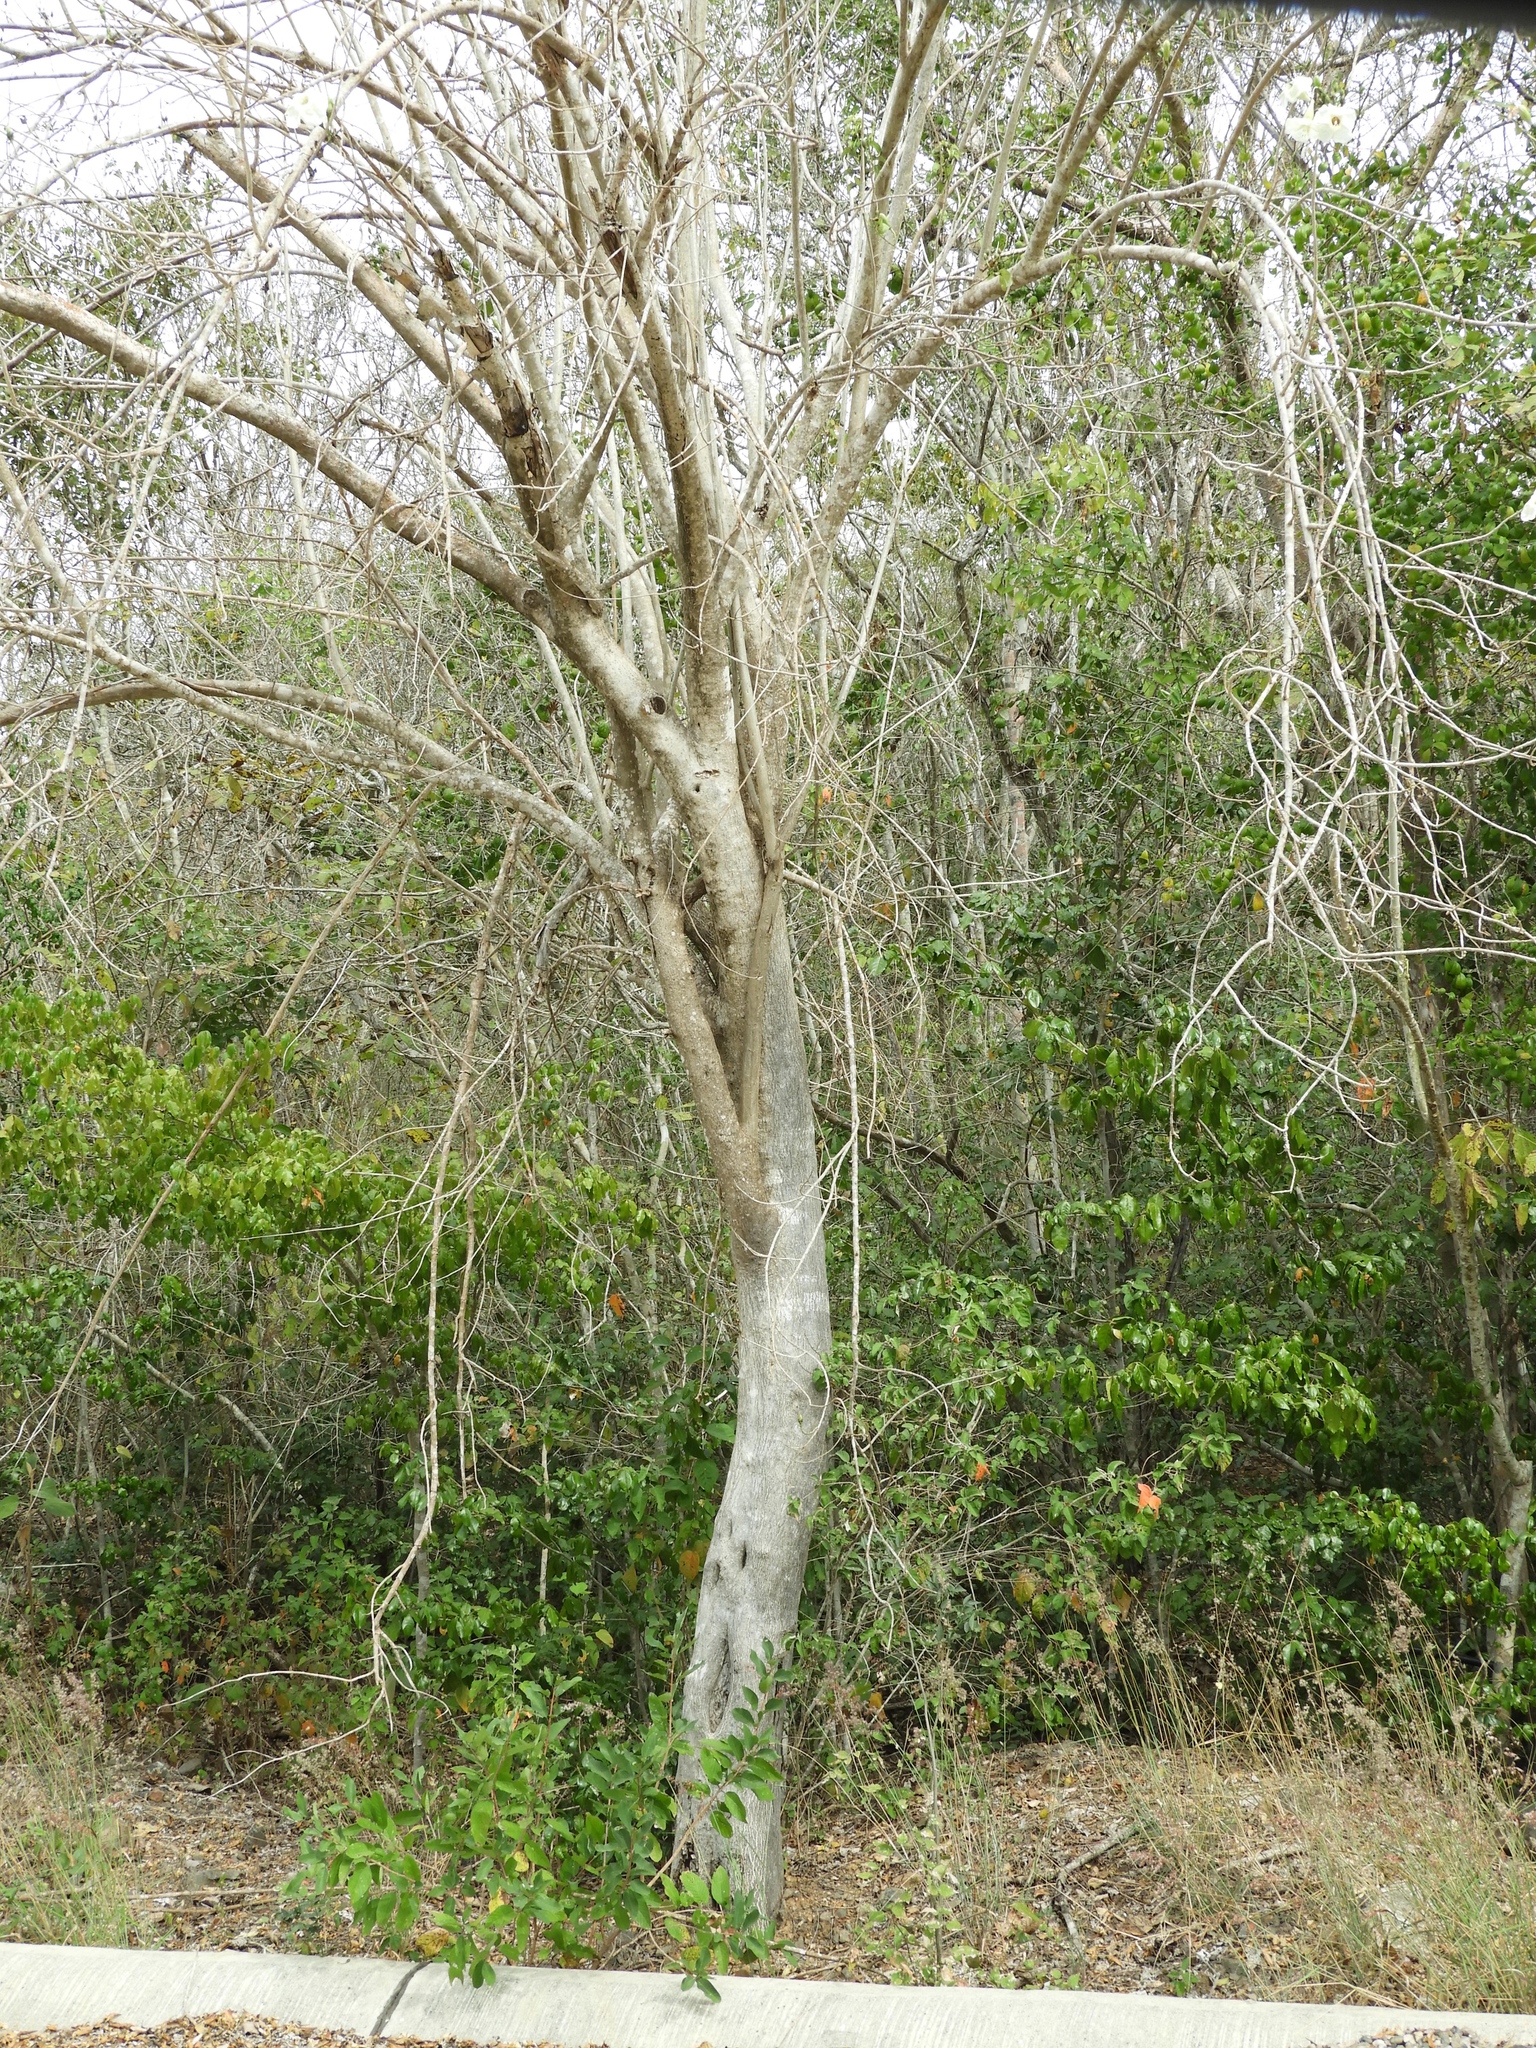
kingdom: Plantae
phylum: Tracheophyta
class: Magnoliopsida
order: Solanales
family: Convolvulaceae
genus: Ipomoea
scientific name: Ipomoea arborescens
